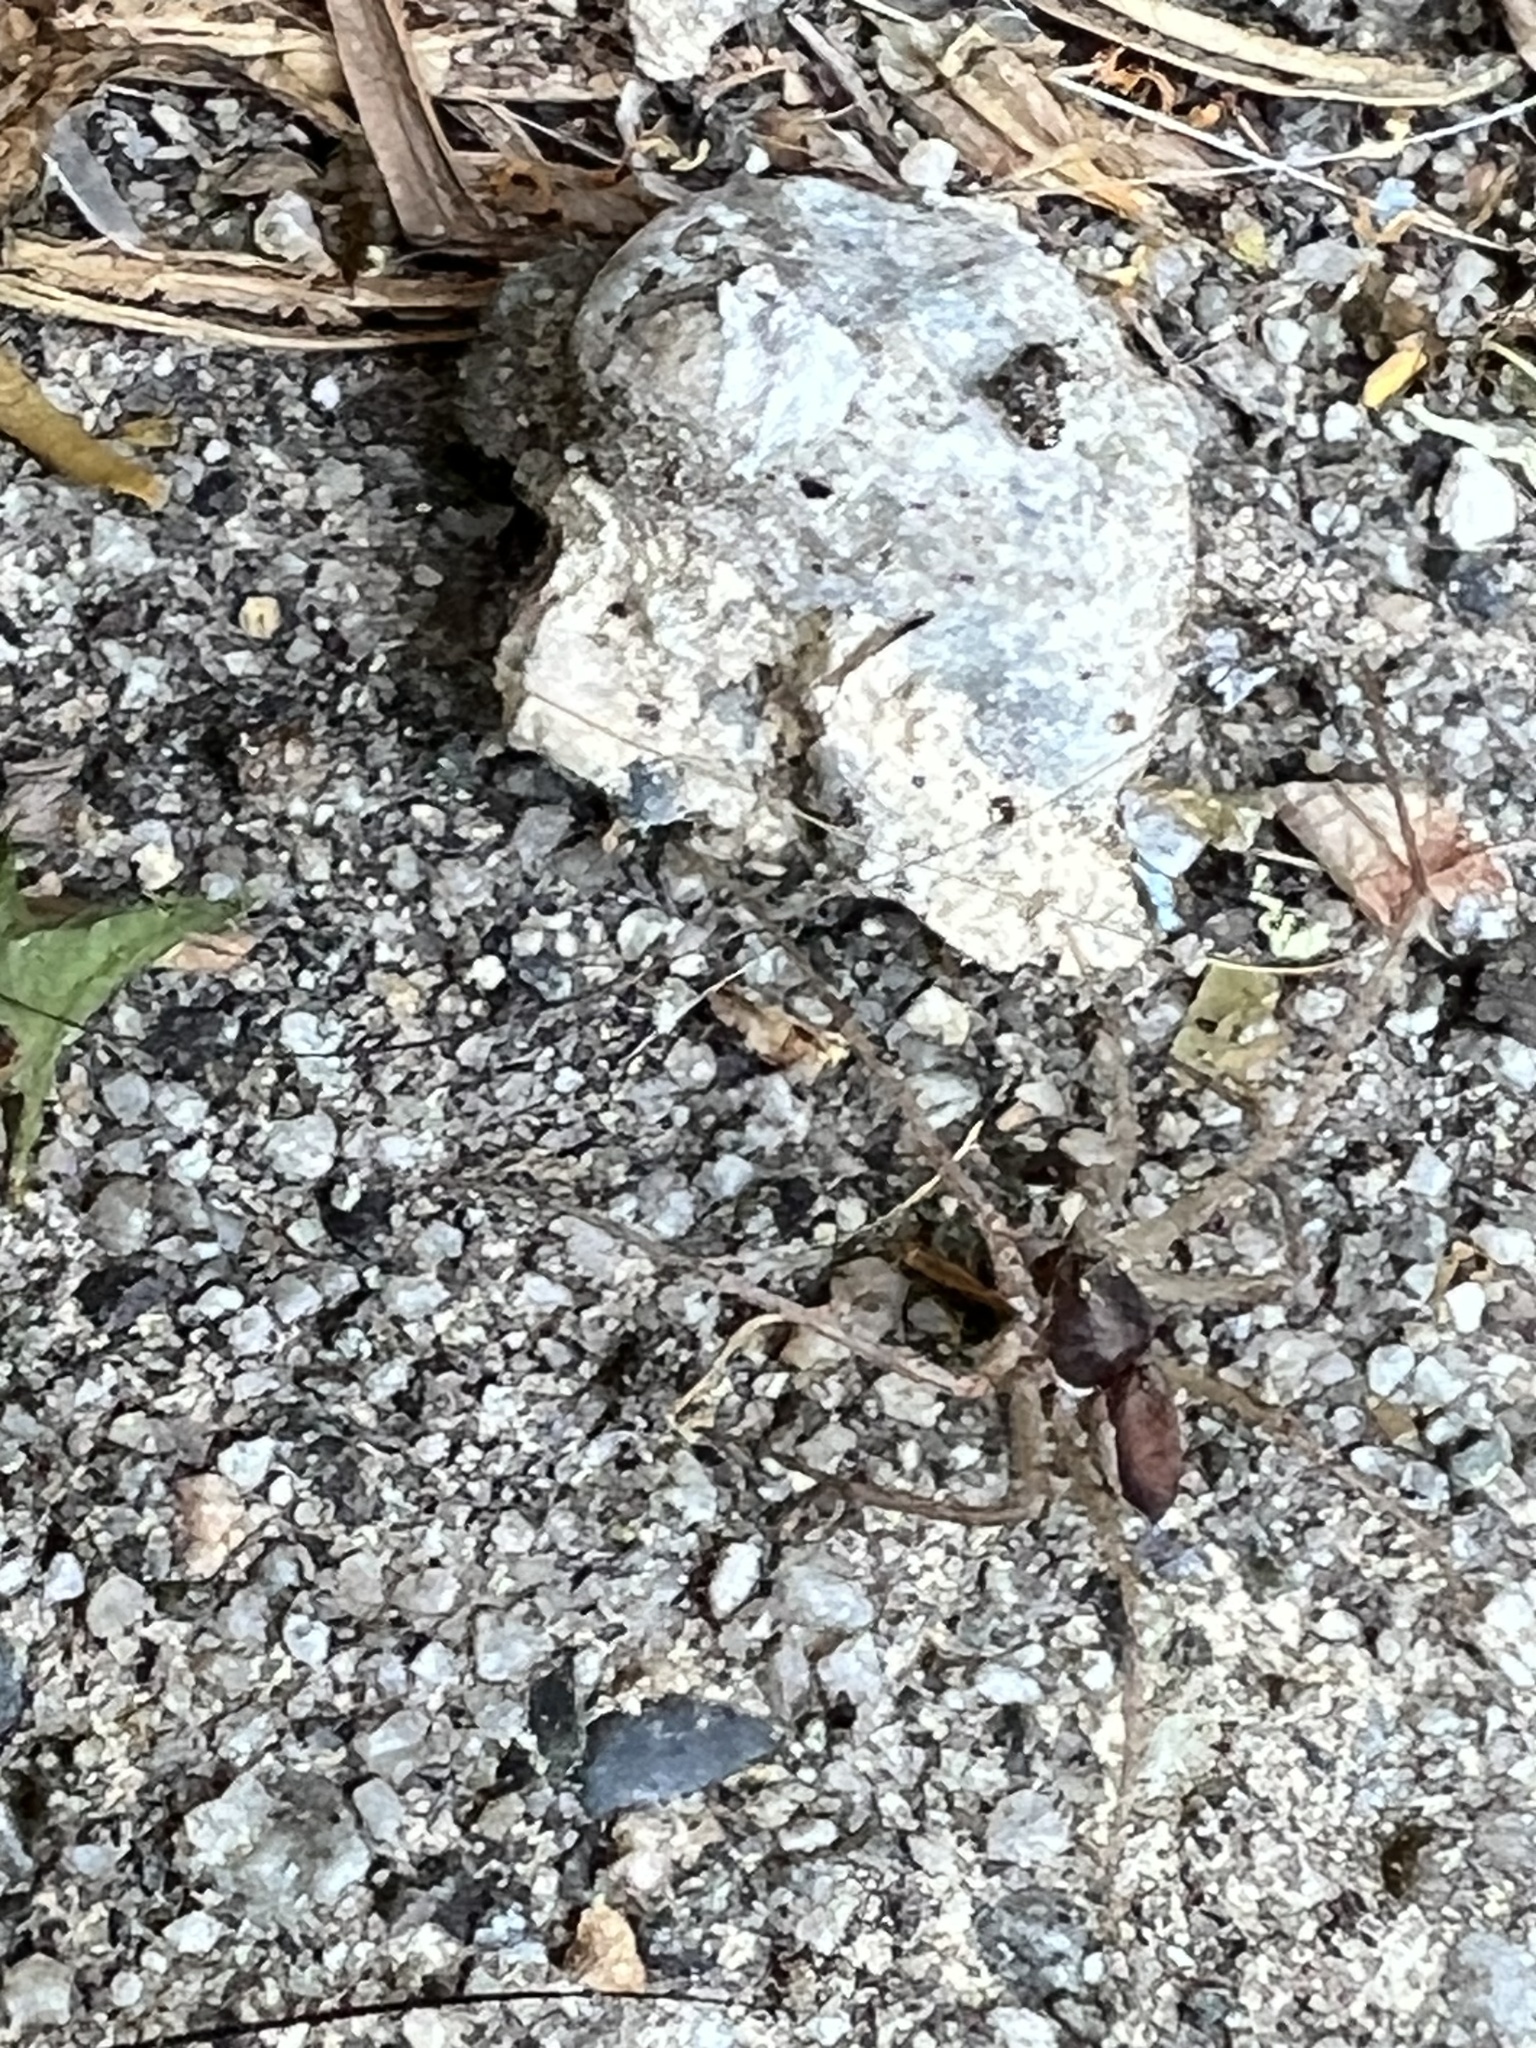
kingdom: Animalia
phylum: Arthropoda
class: Arachnida
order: Araneae
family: Philodromidae
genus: Philodromus
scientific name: Philodromus dispar
